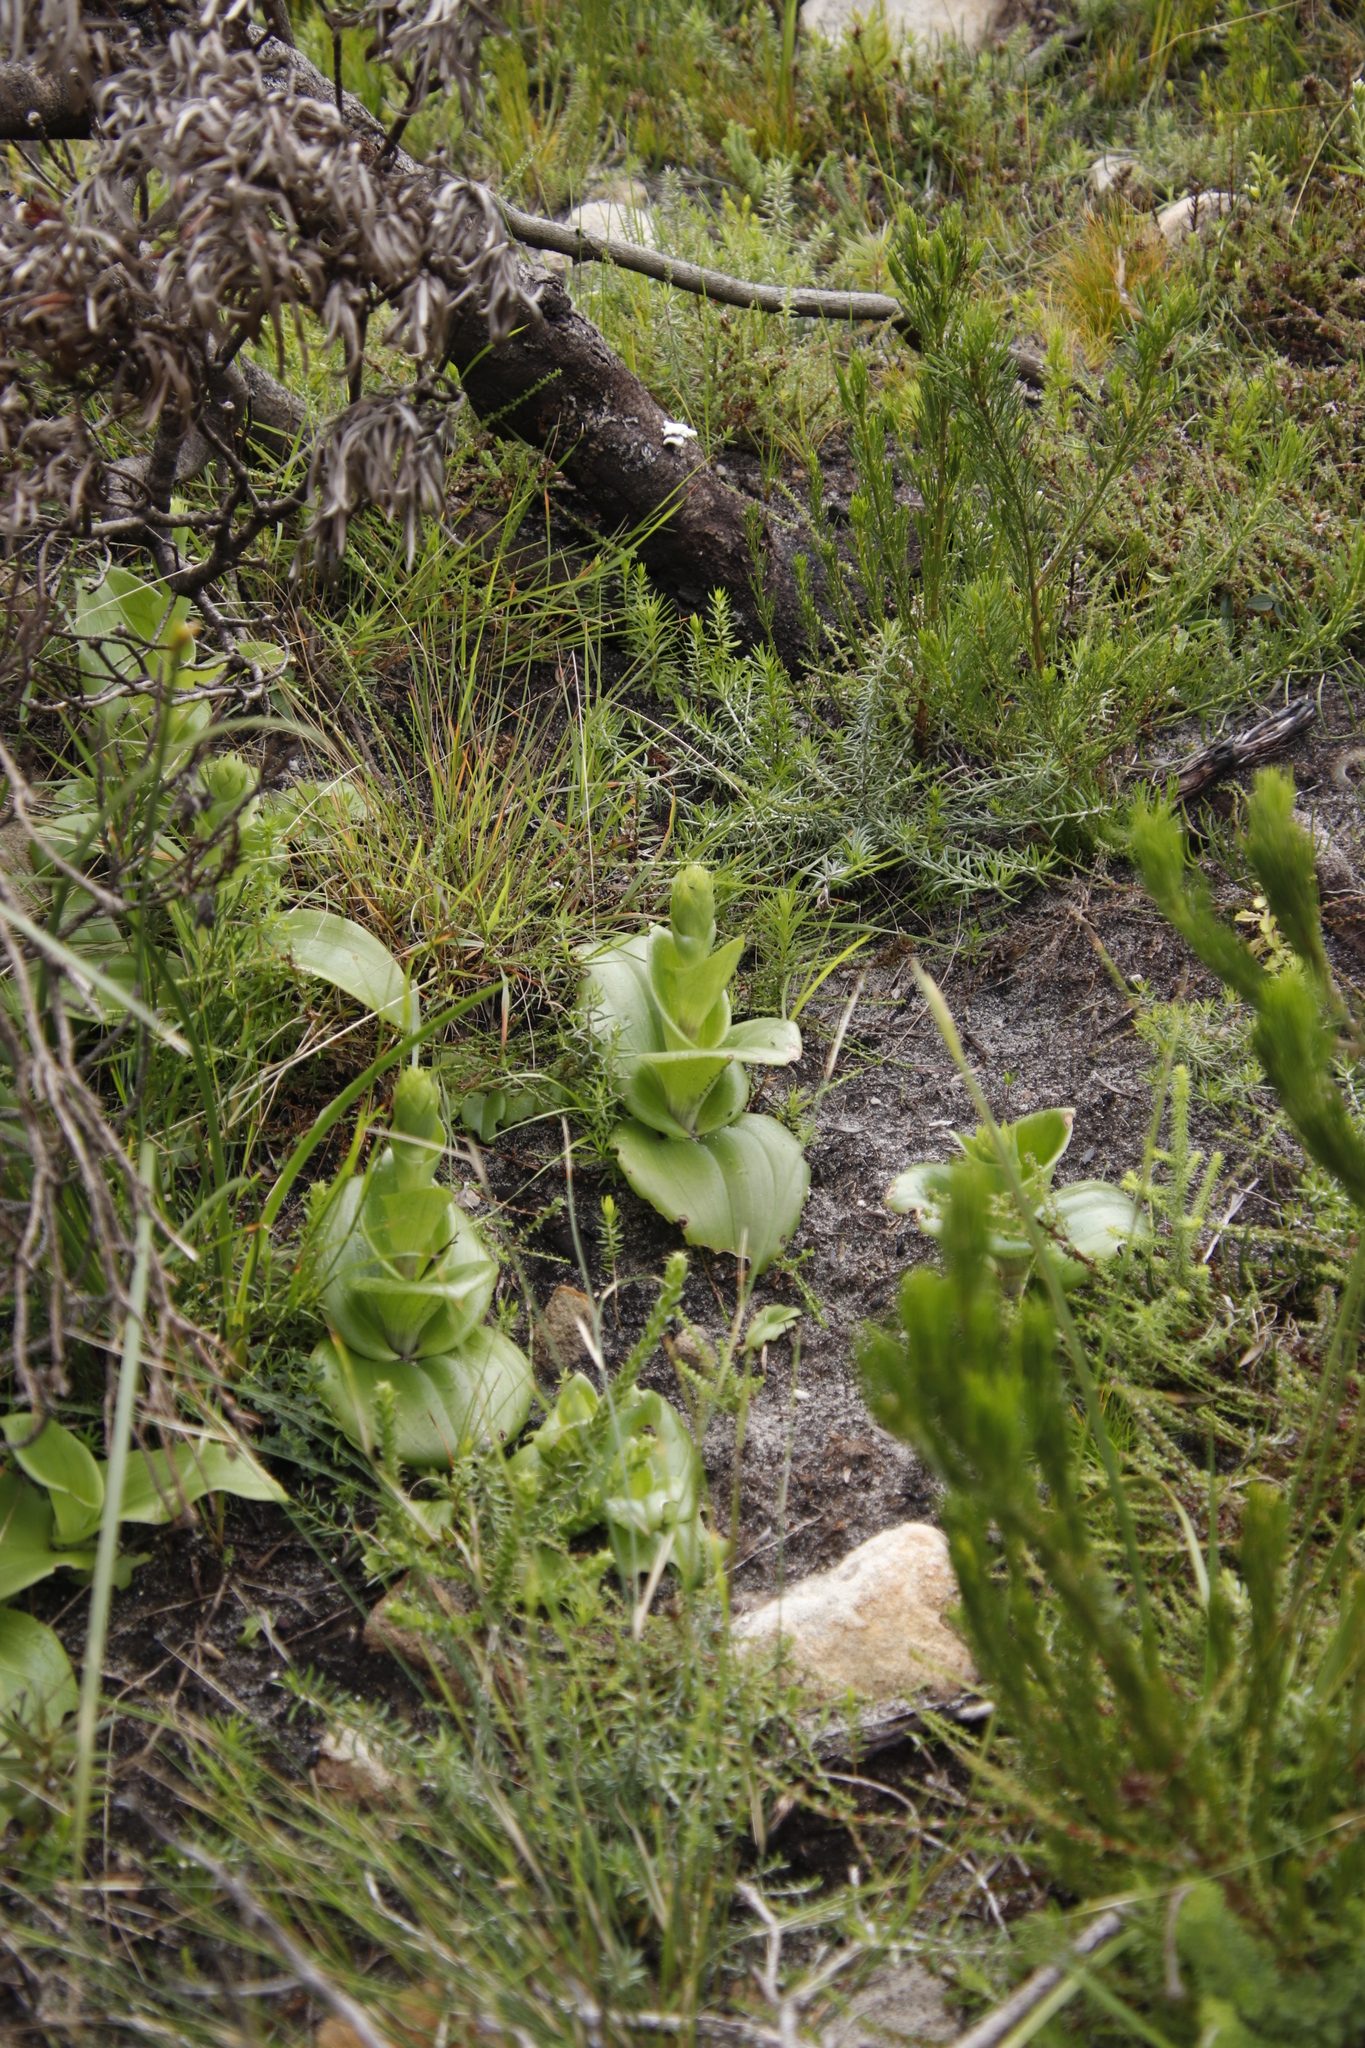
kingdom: Plantae
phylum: Tracheophyta
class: Liliopsida
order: Asparagales
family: Orchidaceae
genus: Satyrium
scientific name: Satyrium odorum
